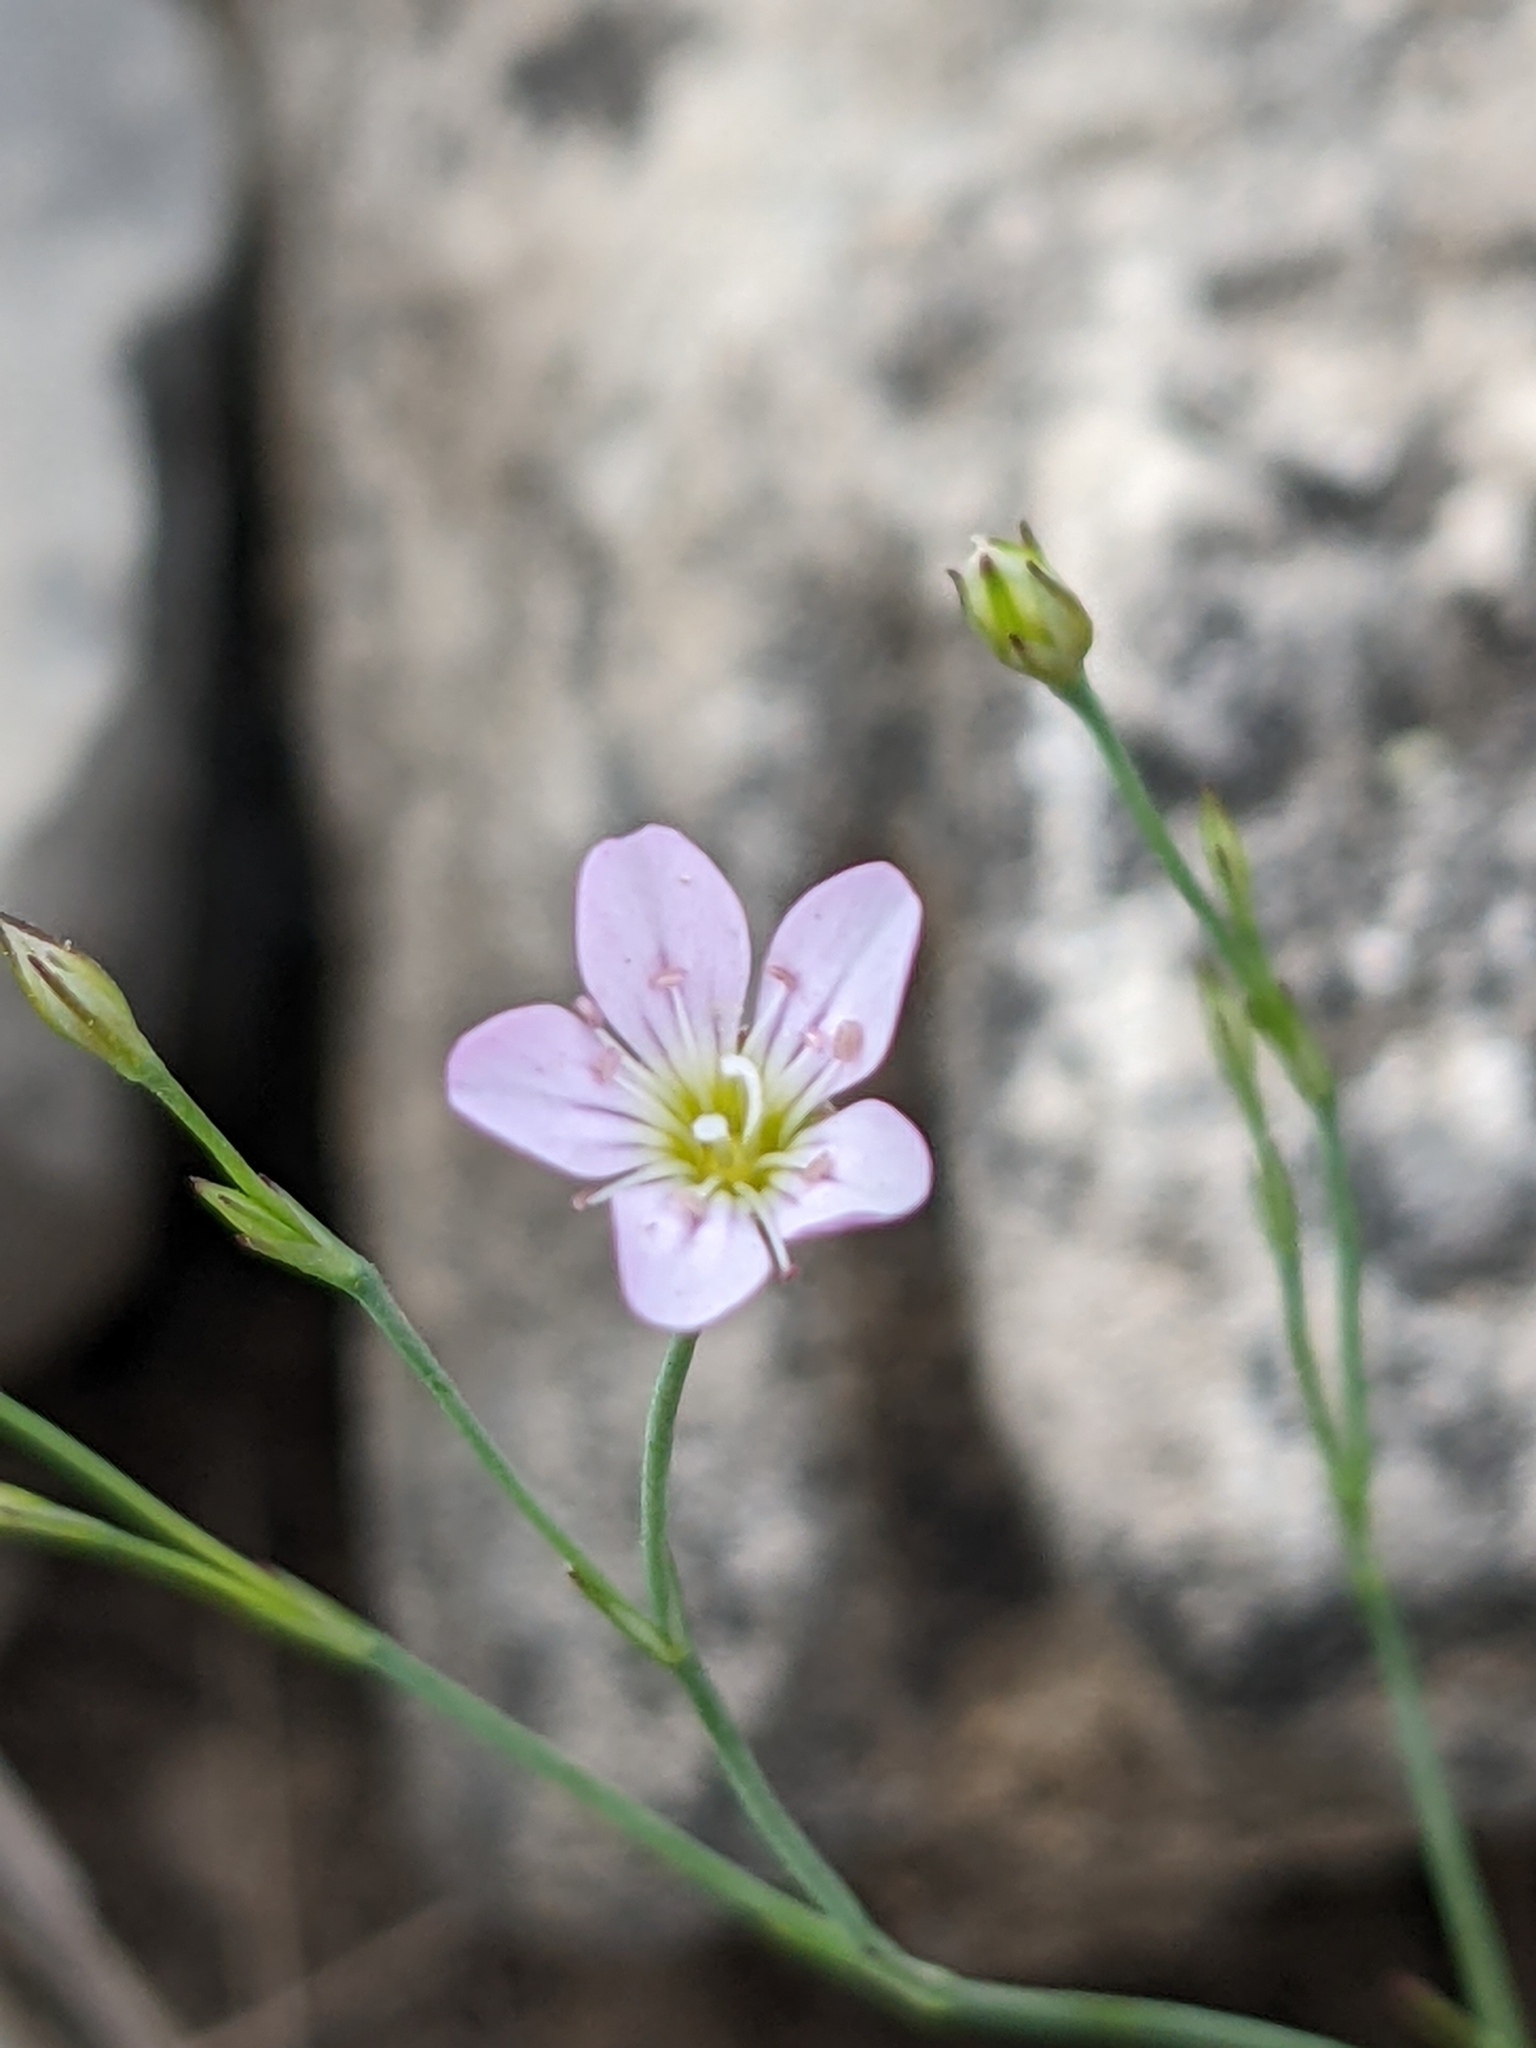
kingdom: Plantae
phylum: Tracheophyta
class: Magnoliopsida
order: Caryophyllales
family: Caryophyllaceae
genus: Petrorhagia
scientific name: Petrorhagia saxifraga
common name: Tunicflower
